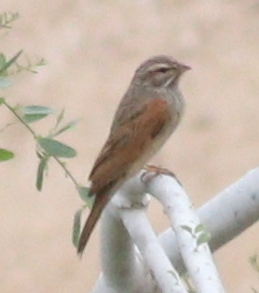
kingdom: Animalia
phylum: Chordata
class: Aves
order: Passeriformes
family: Emberizidae
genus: Emberiza
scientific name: Emberiza striolata
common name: Striolated bunting
